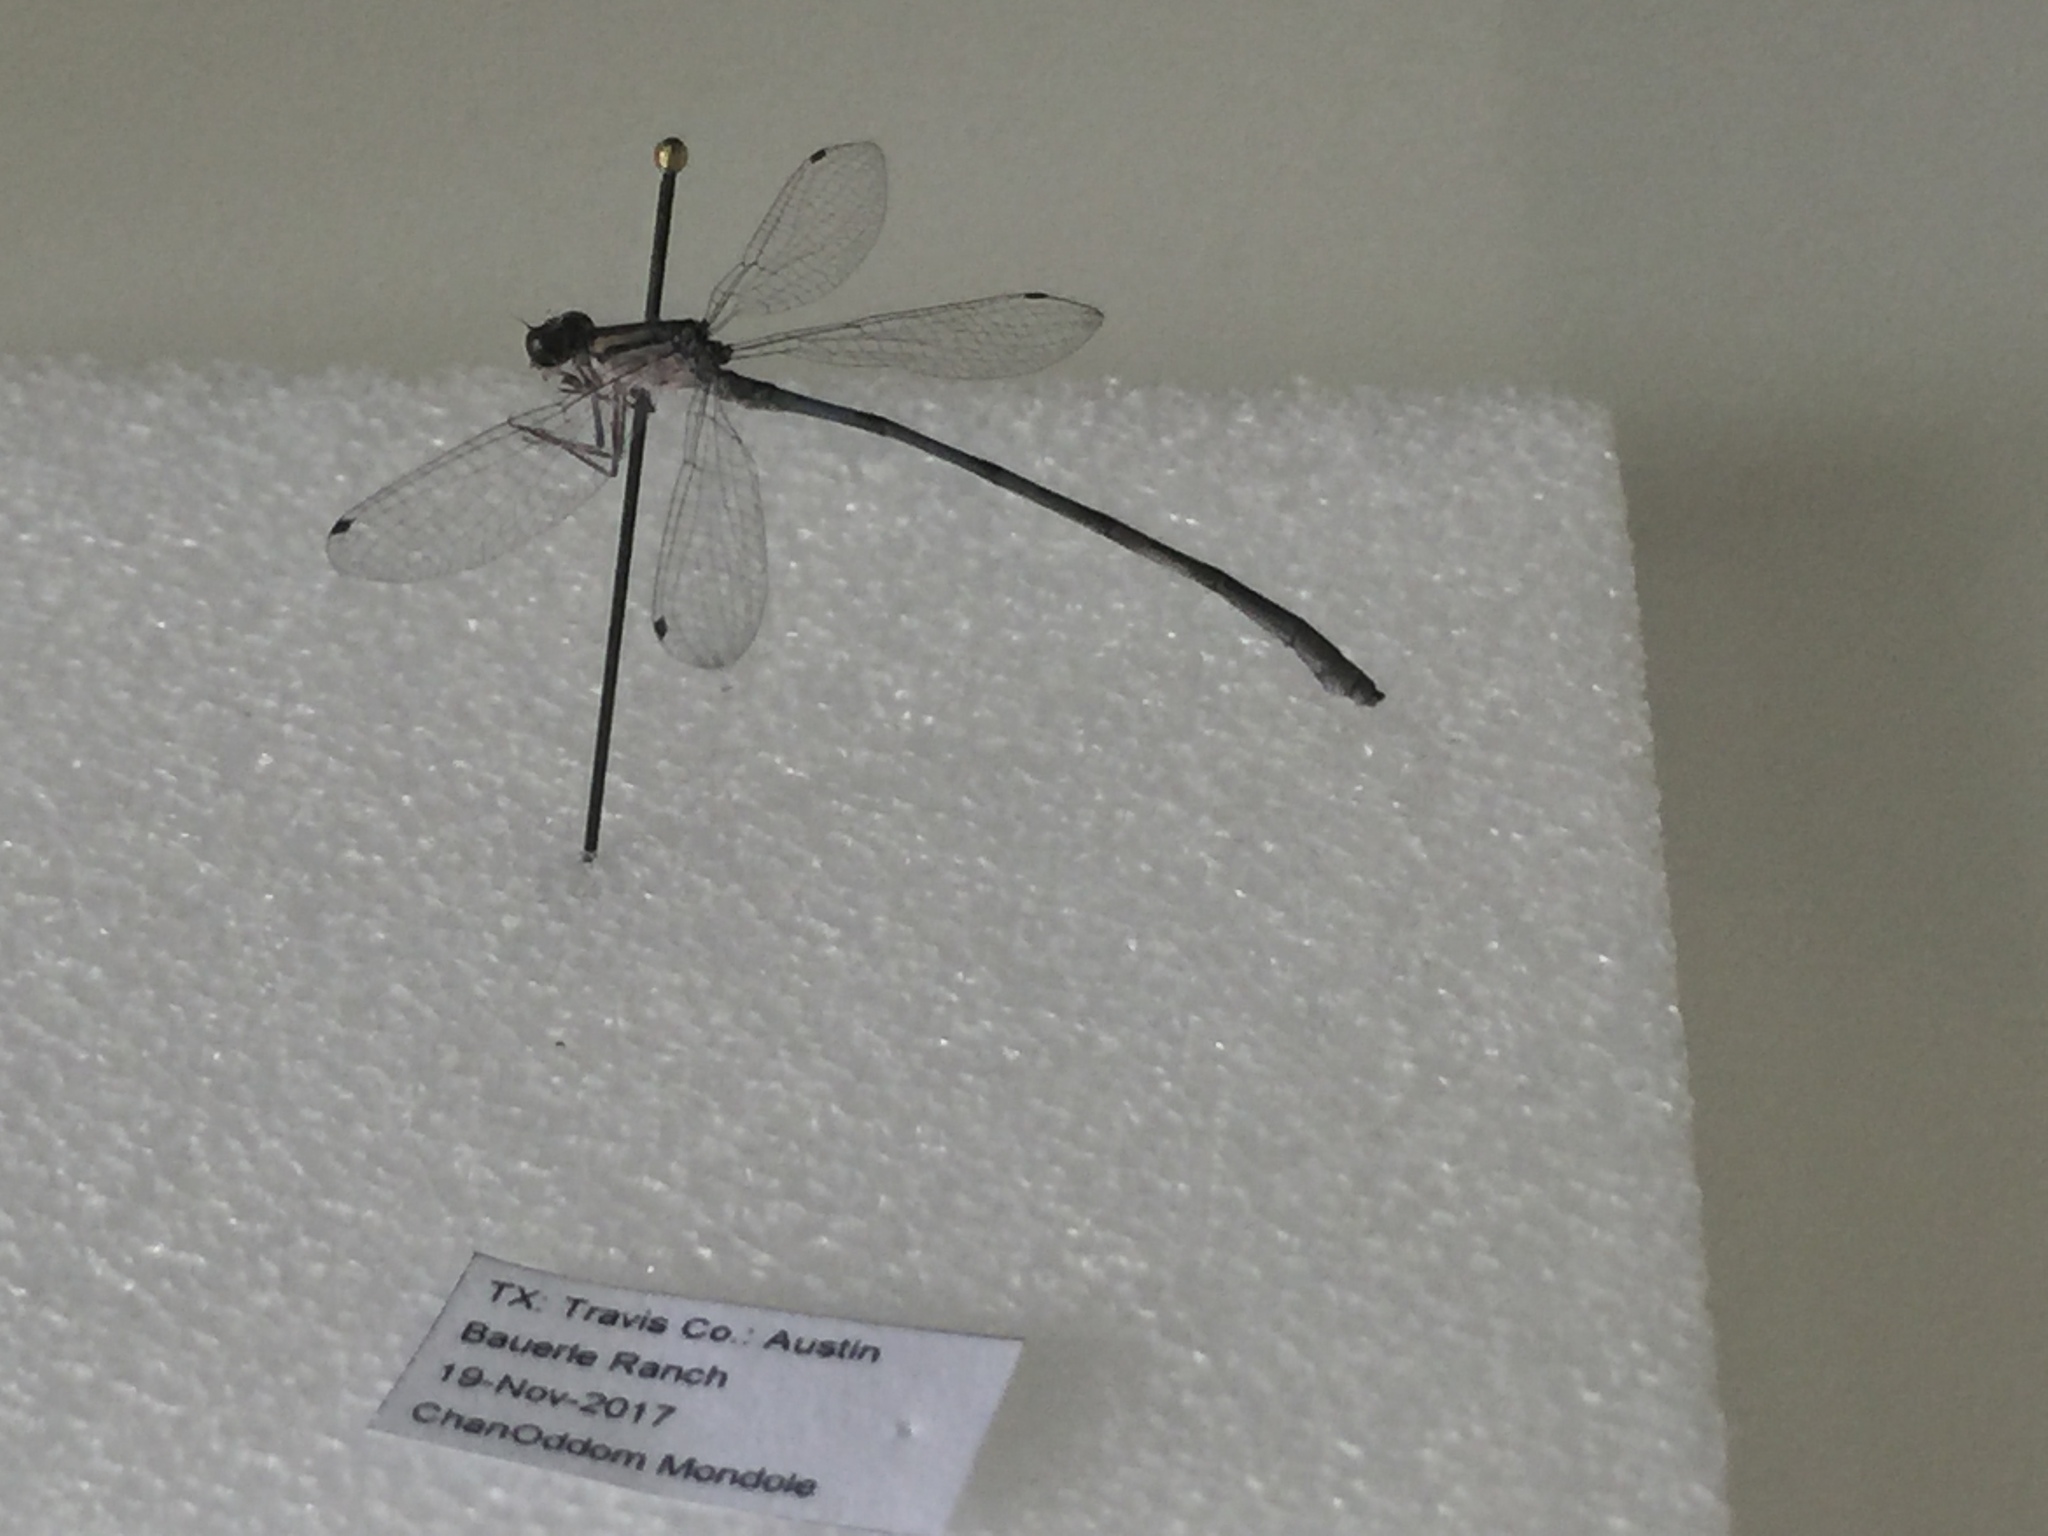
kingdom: Animalia
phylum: Arthropoda
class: Insecta
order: Odonata
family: Coenagrionidae
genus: Enallagma
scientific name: Enallagma civile
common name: Damselfly
